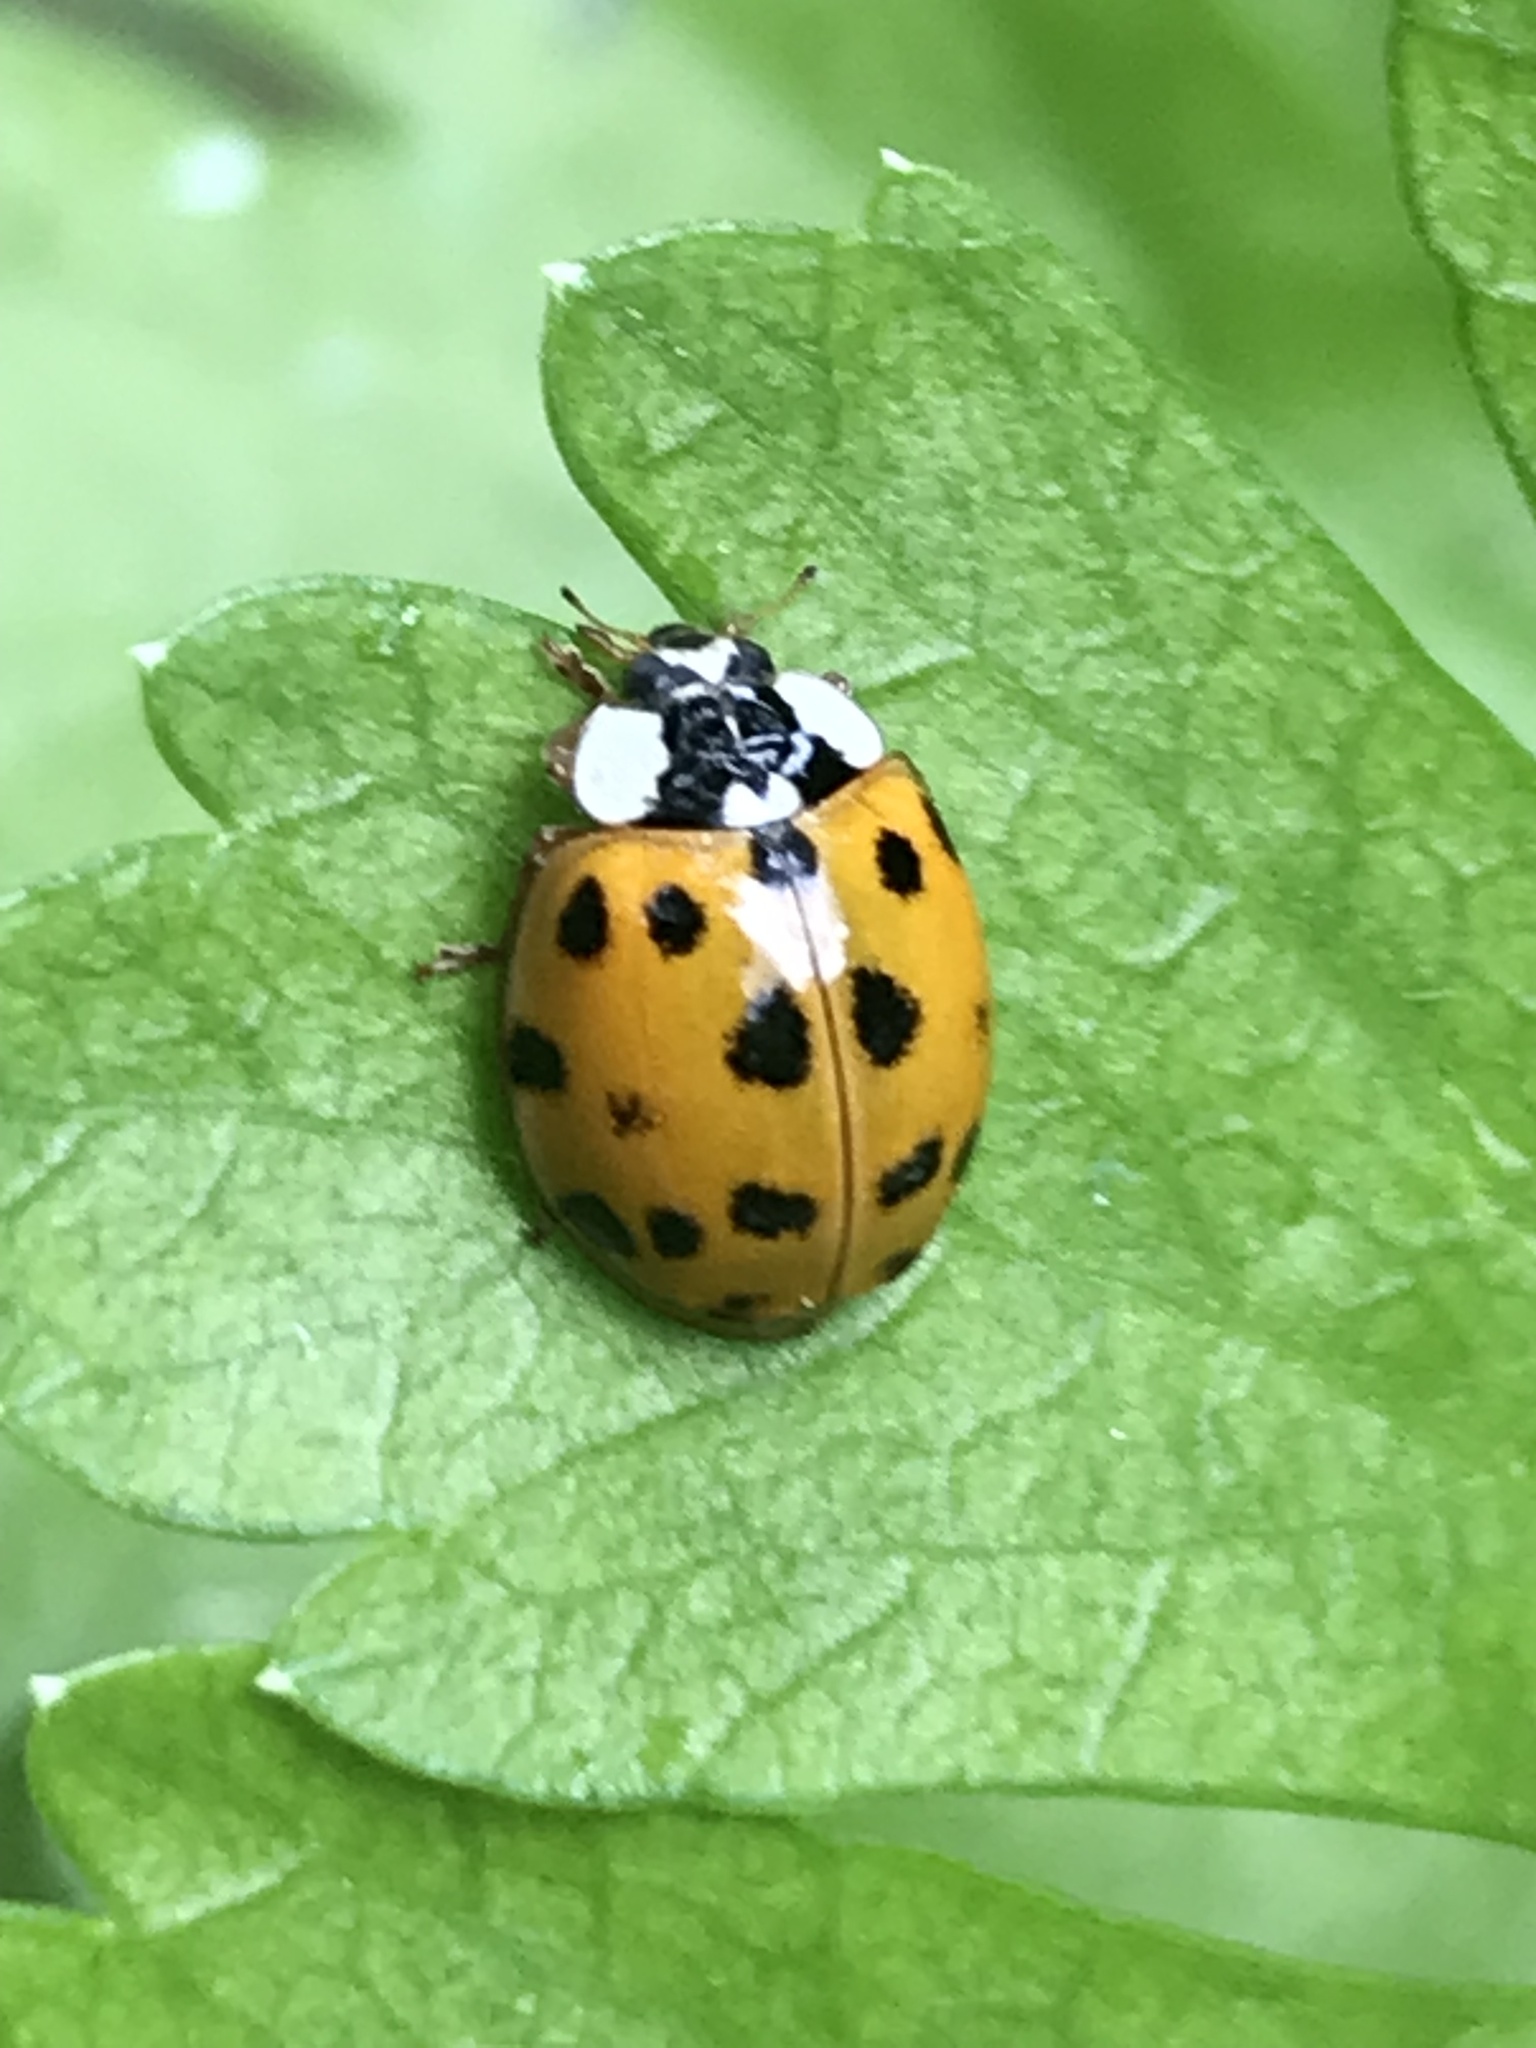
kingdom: Animalia
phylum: Arthropoda
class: Insecta
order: Coleoptera
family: Coccinellidae
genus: Harmonia
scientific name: Harmonia axyridis
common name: Harlequin ladybird
